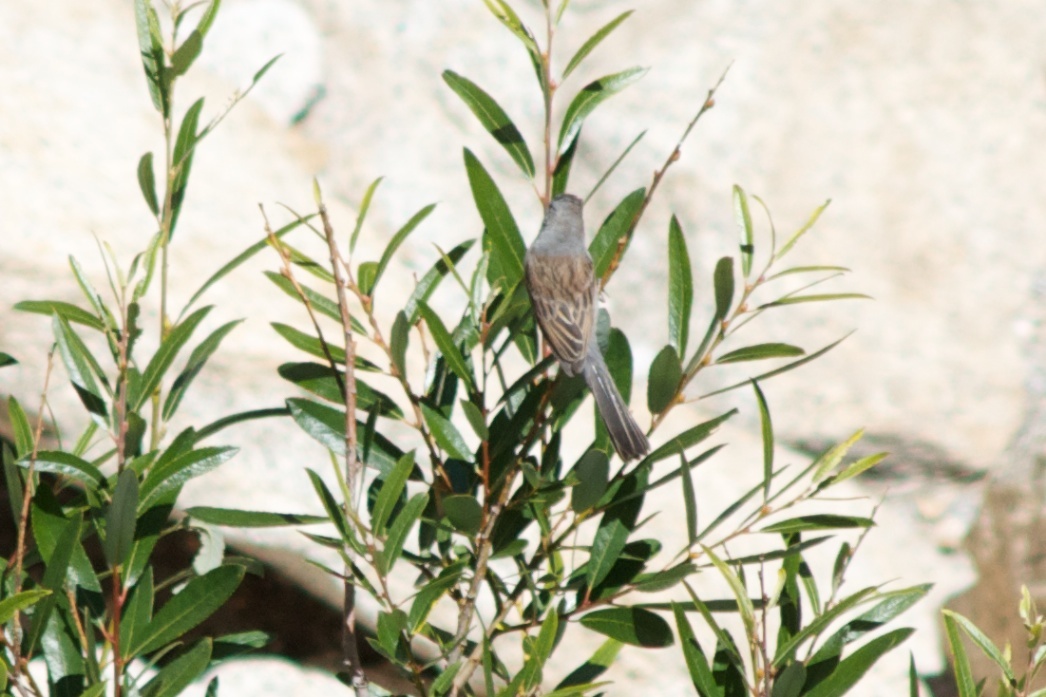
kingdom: Animalia
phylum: Chordata
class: Aves
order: Passeriformes
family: Passerellidae
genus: Spizella
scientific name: Spizella atrogularis
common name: Black-chinned sparrow
